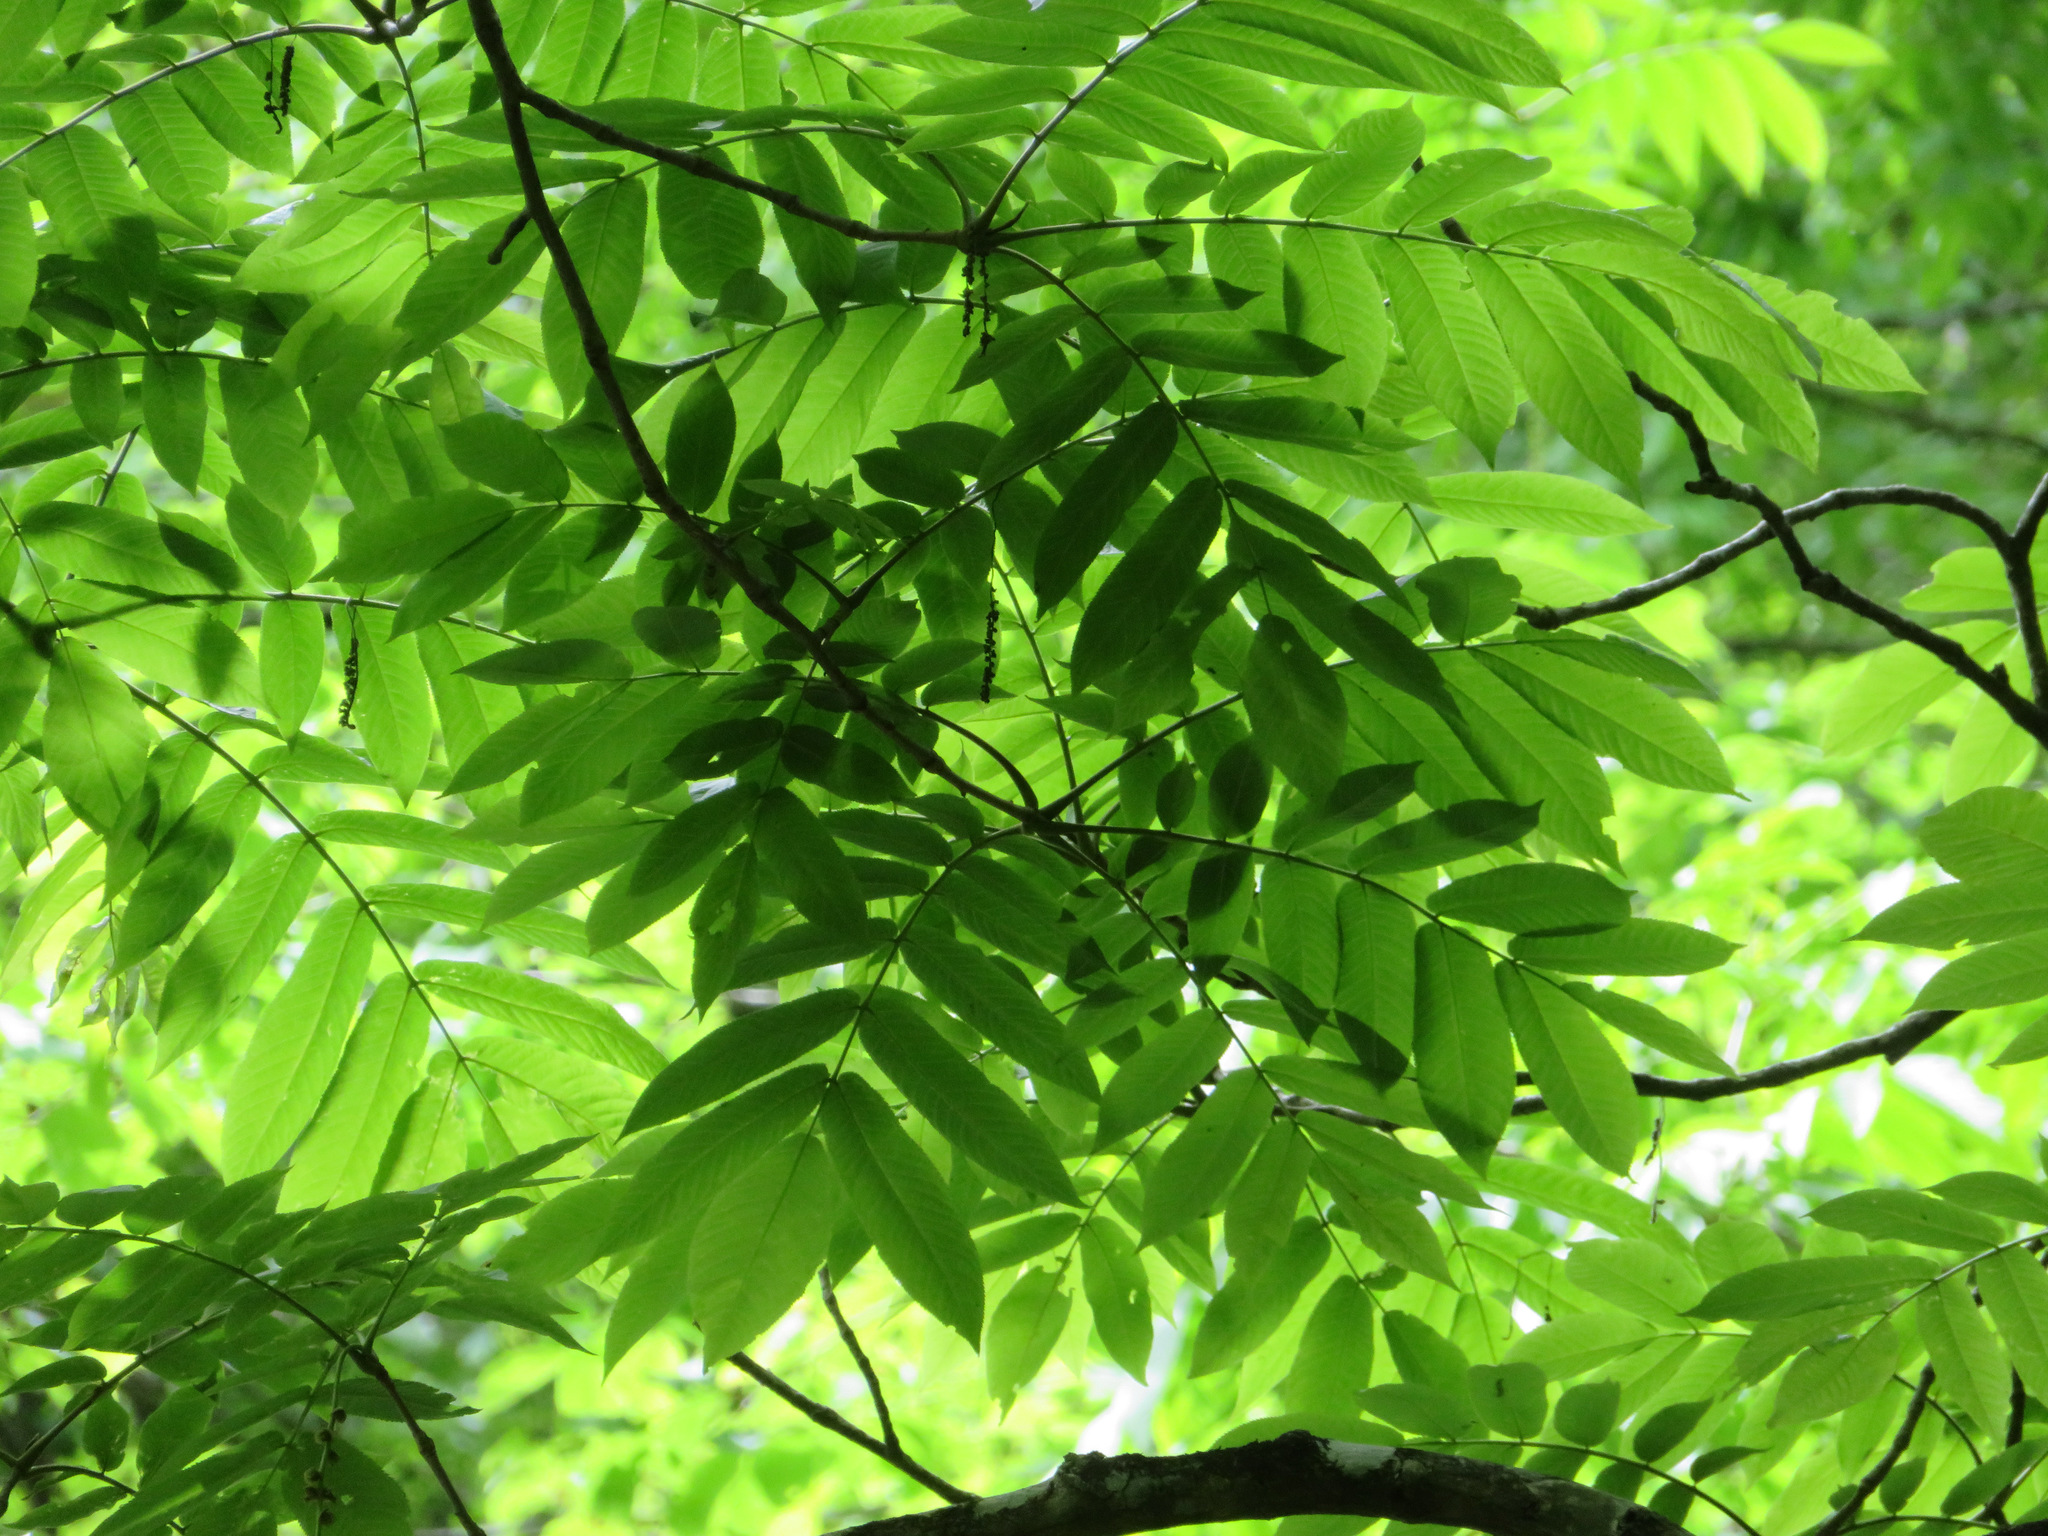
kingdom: Plantae
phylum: Tracheophyta
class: Magnoliopsida
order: Fagales
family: Juglandaceae
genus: Pterocarya
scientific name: Pterocarya rhoifolia
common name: Japanese wingnut
